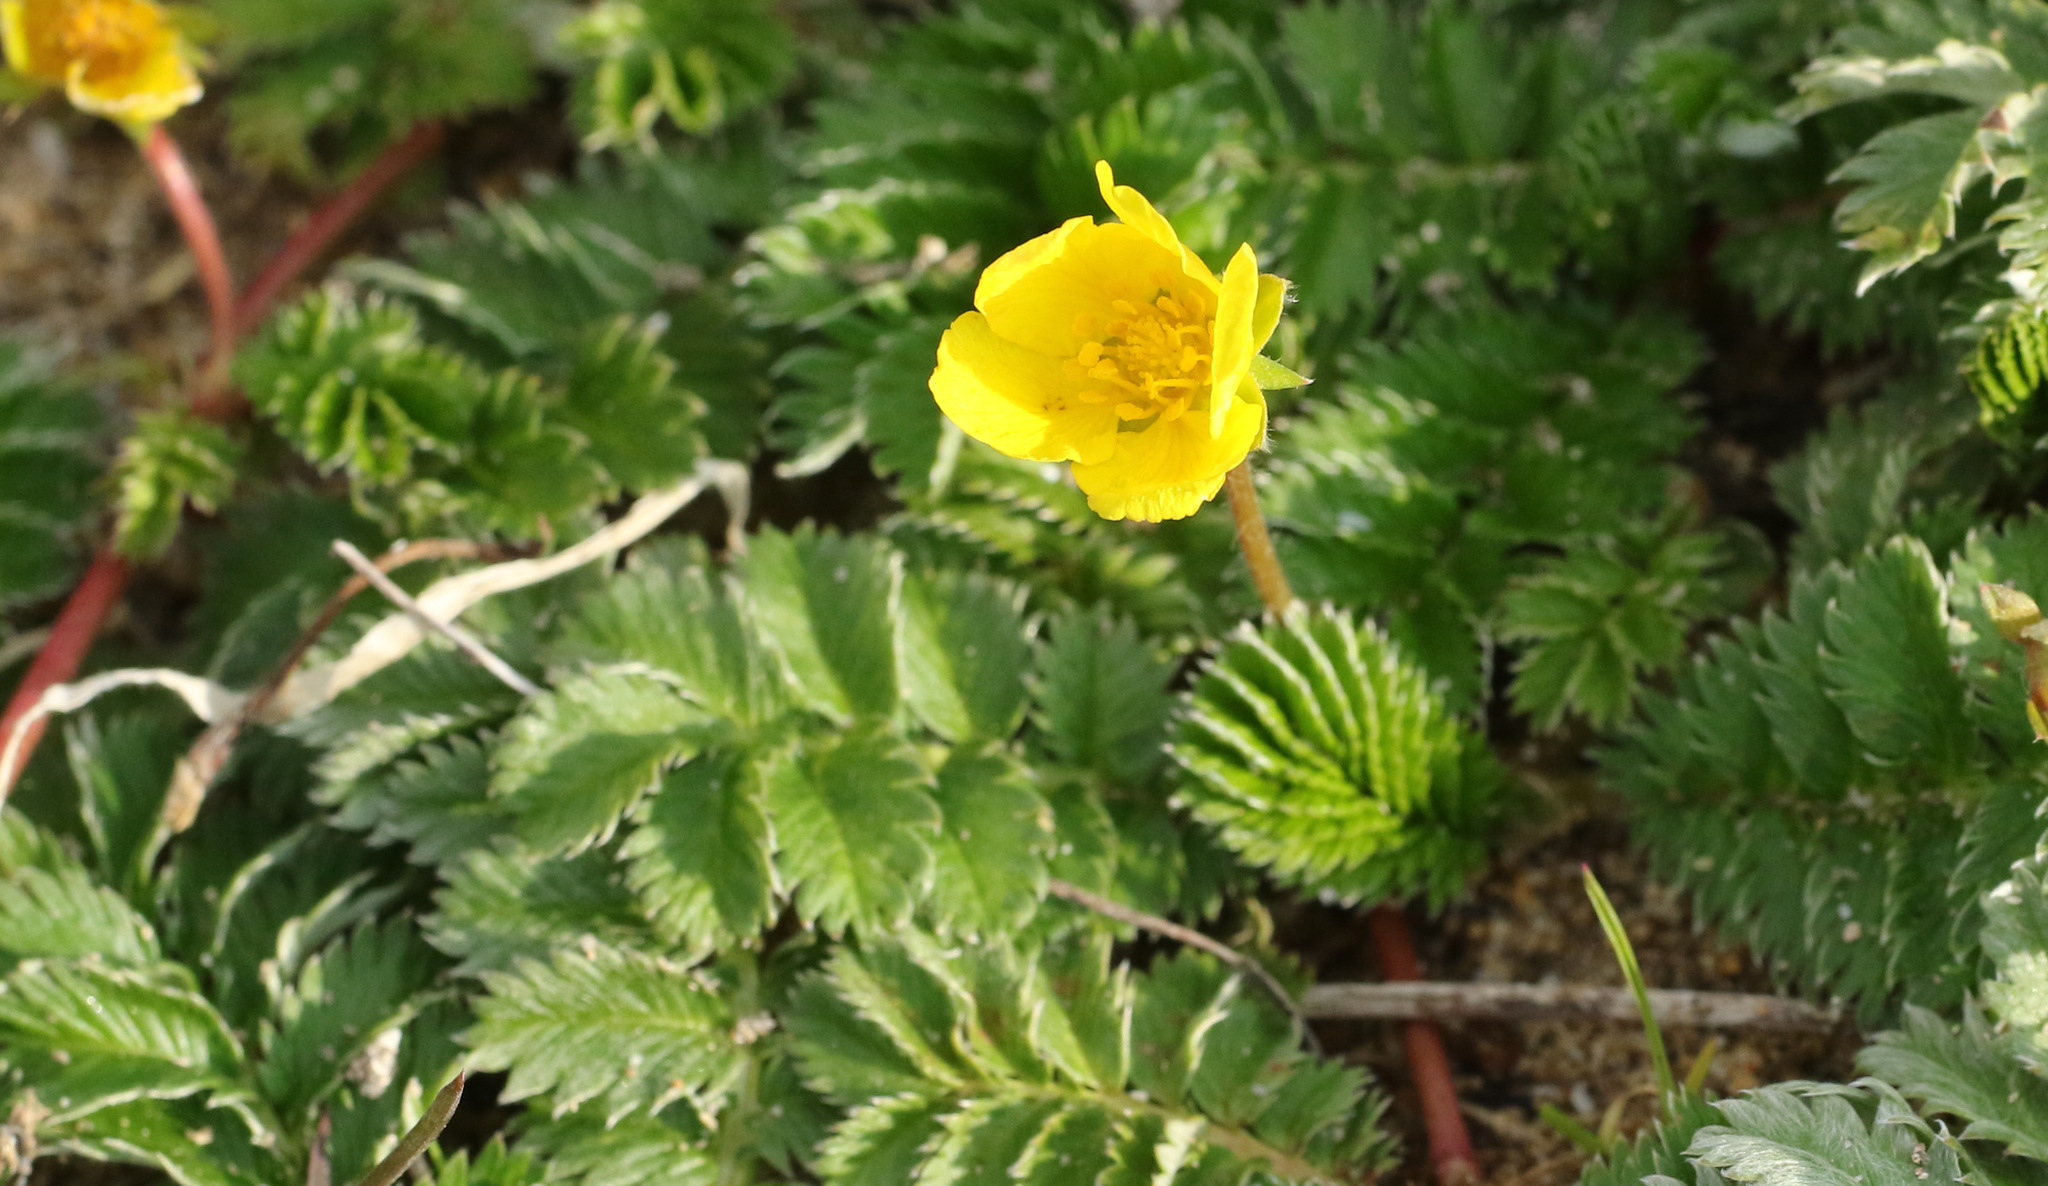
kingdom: Plantae
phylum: Tracheophyta
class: Magnoliopsida
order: Rosales
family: Rosaceae
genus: Argentina
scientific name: Argentina anserina
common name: Common silverweed
